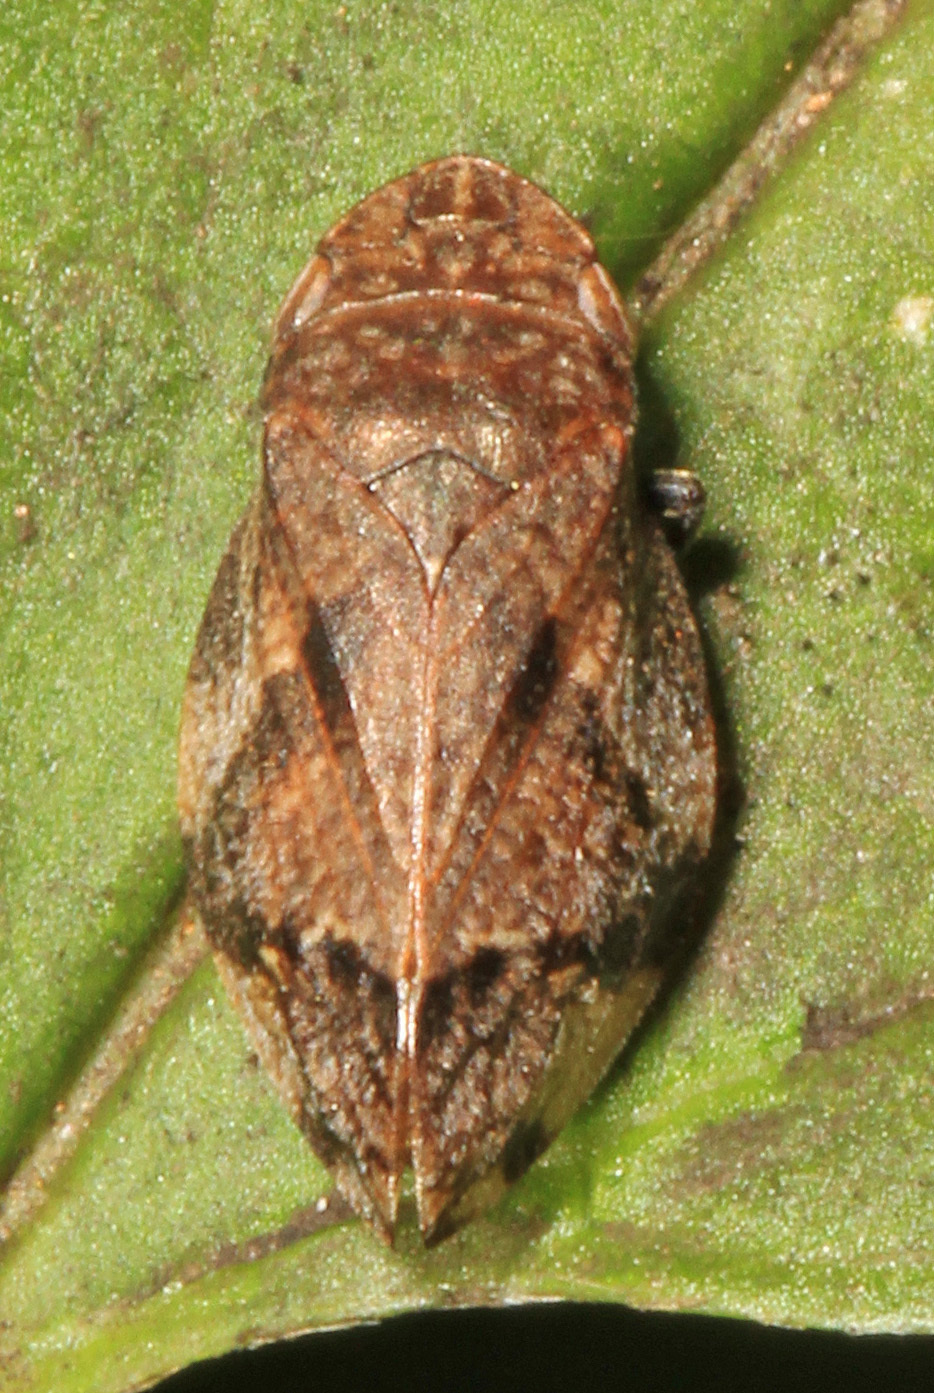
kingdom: Animalia
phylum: Arthropoda
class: Insecta
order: Hemiptera
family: Aphrophoridae
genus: Lepyronia
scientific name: Lepyronia quadrangularis
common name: Diamond-backed spittlebug
